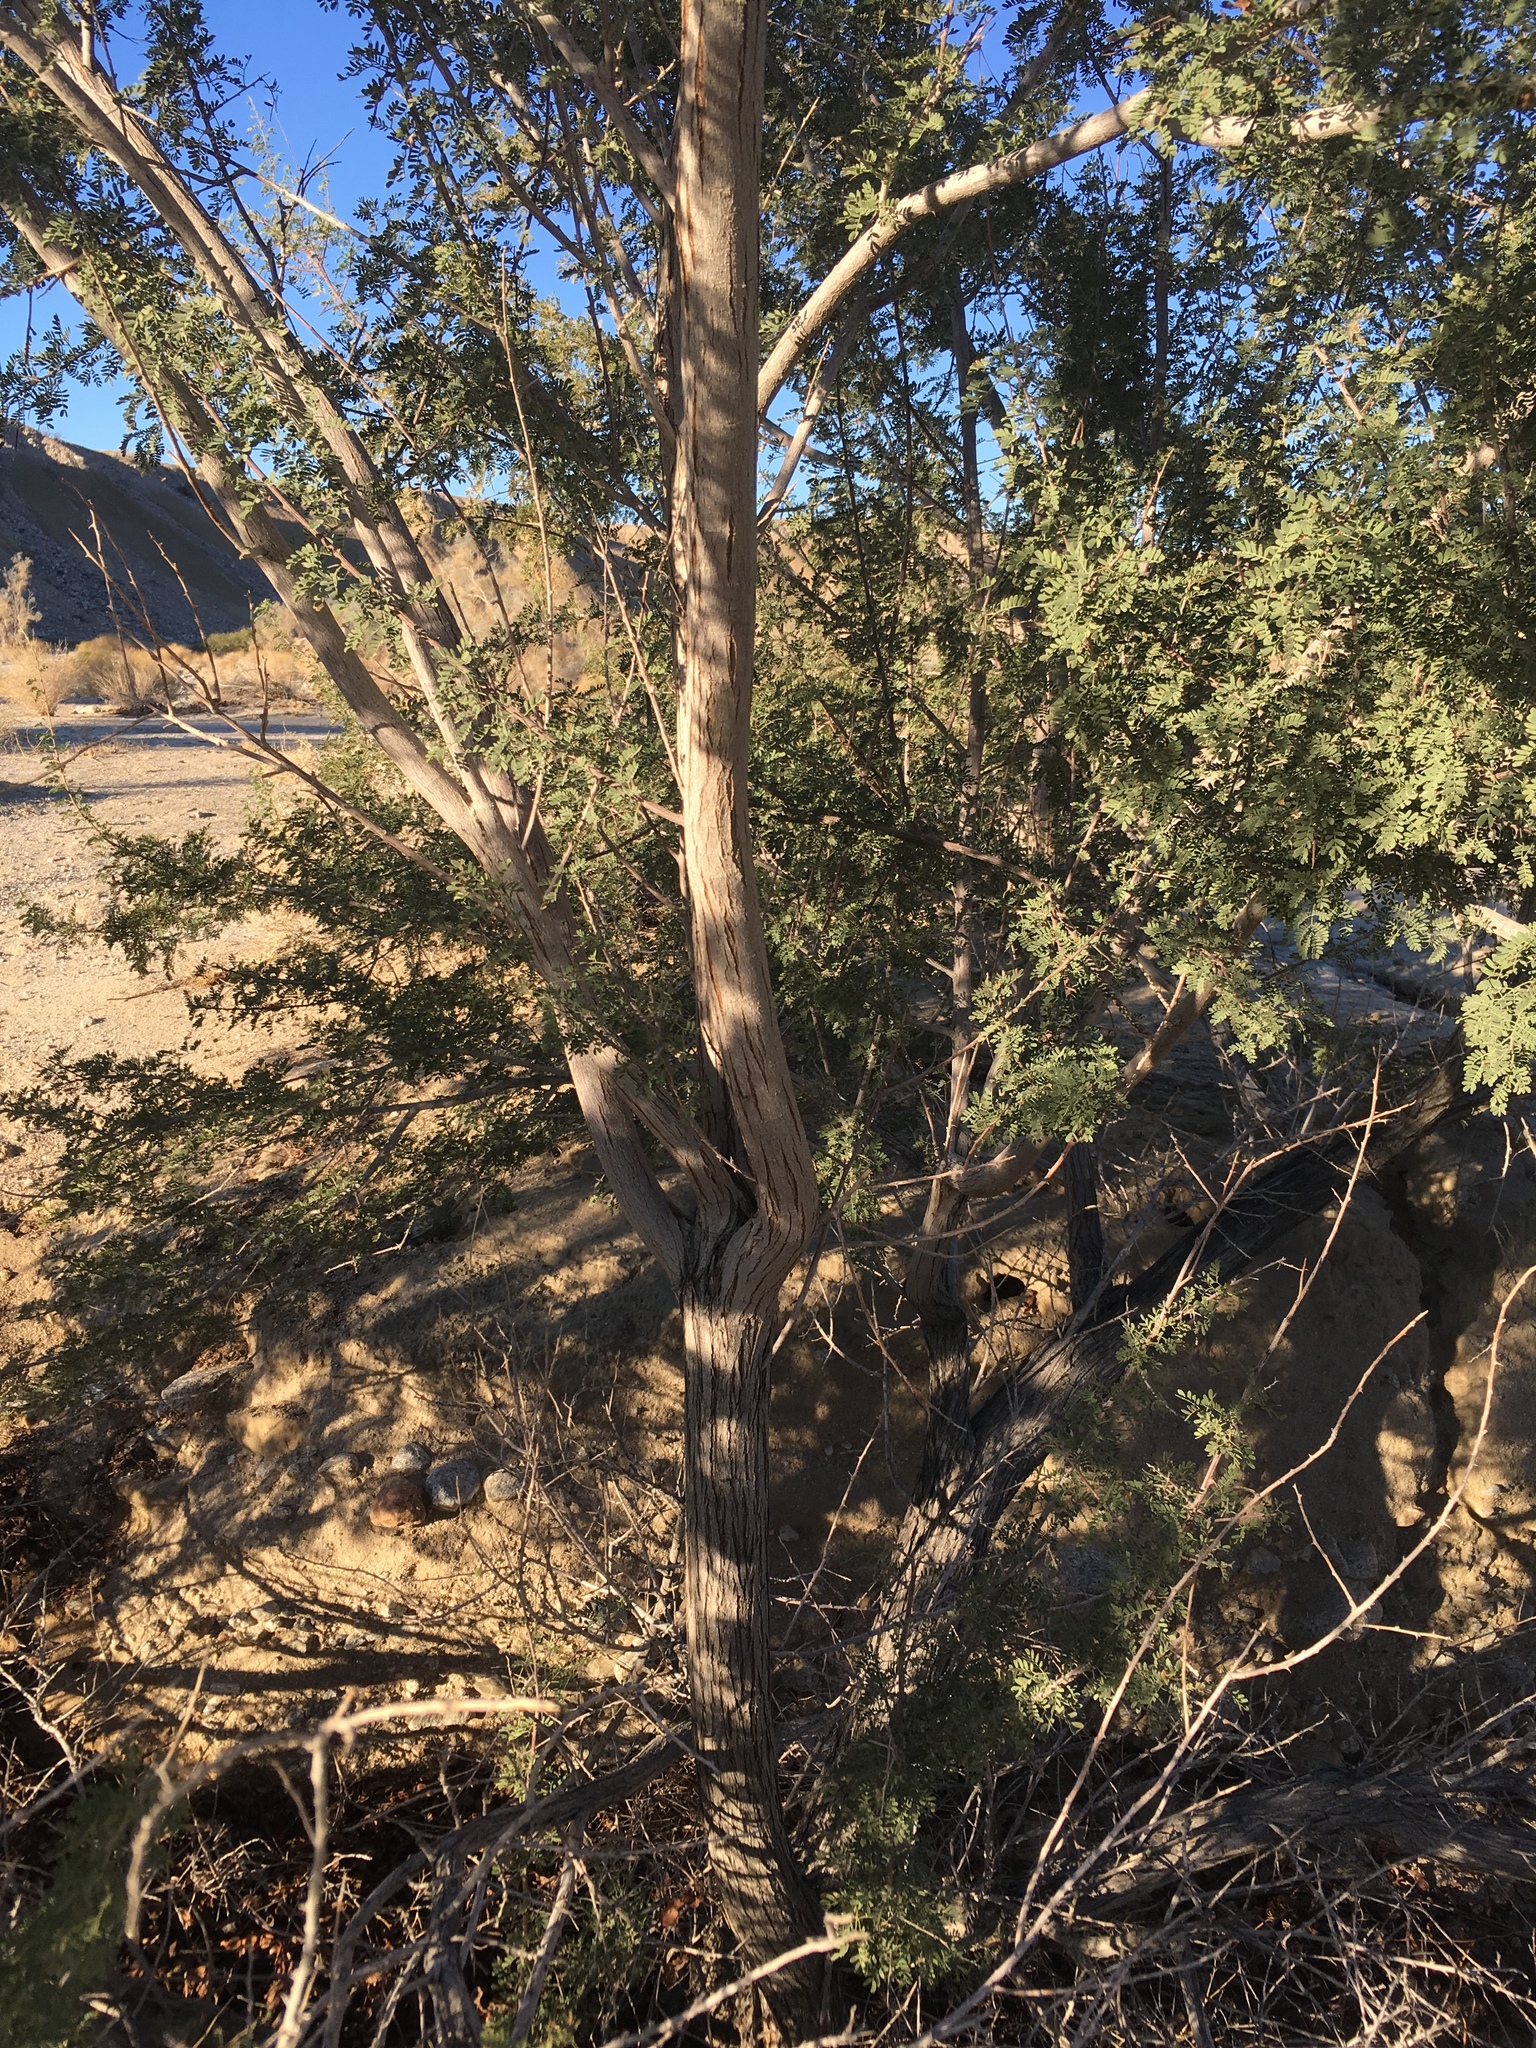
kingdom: Plantae
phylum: Tracheophyta
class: Magnoliopsida
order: Fabales
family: Fabaceae
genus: Senegalia
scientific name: Senegalia greggii
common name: Texas-mimosa
